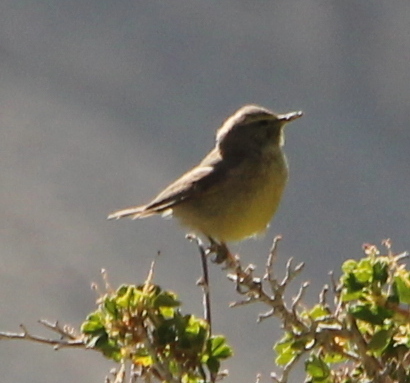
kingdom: Animalia
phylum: Chordata
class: Aves
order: Passeriformes
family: Phylloscopidae
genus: Phylloscopus
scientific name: Phylloscopus griseolus
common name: Sulphur-bellied warbler
